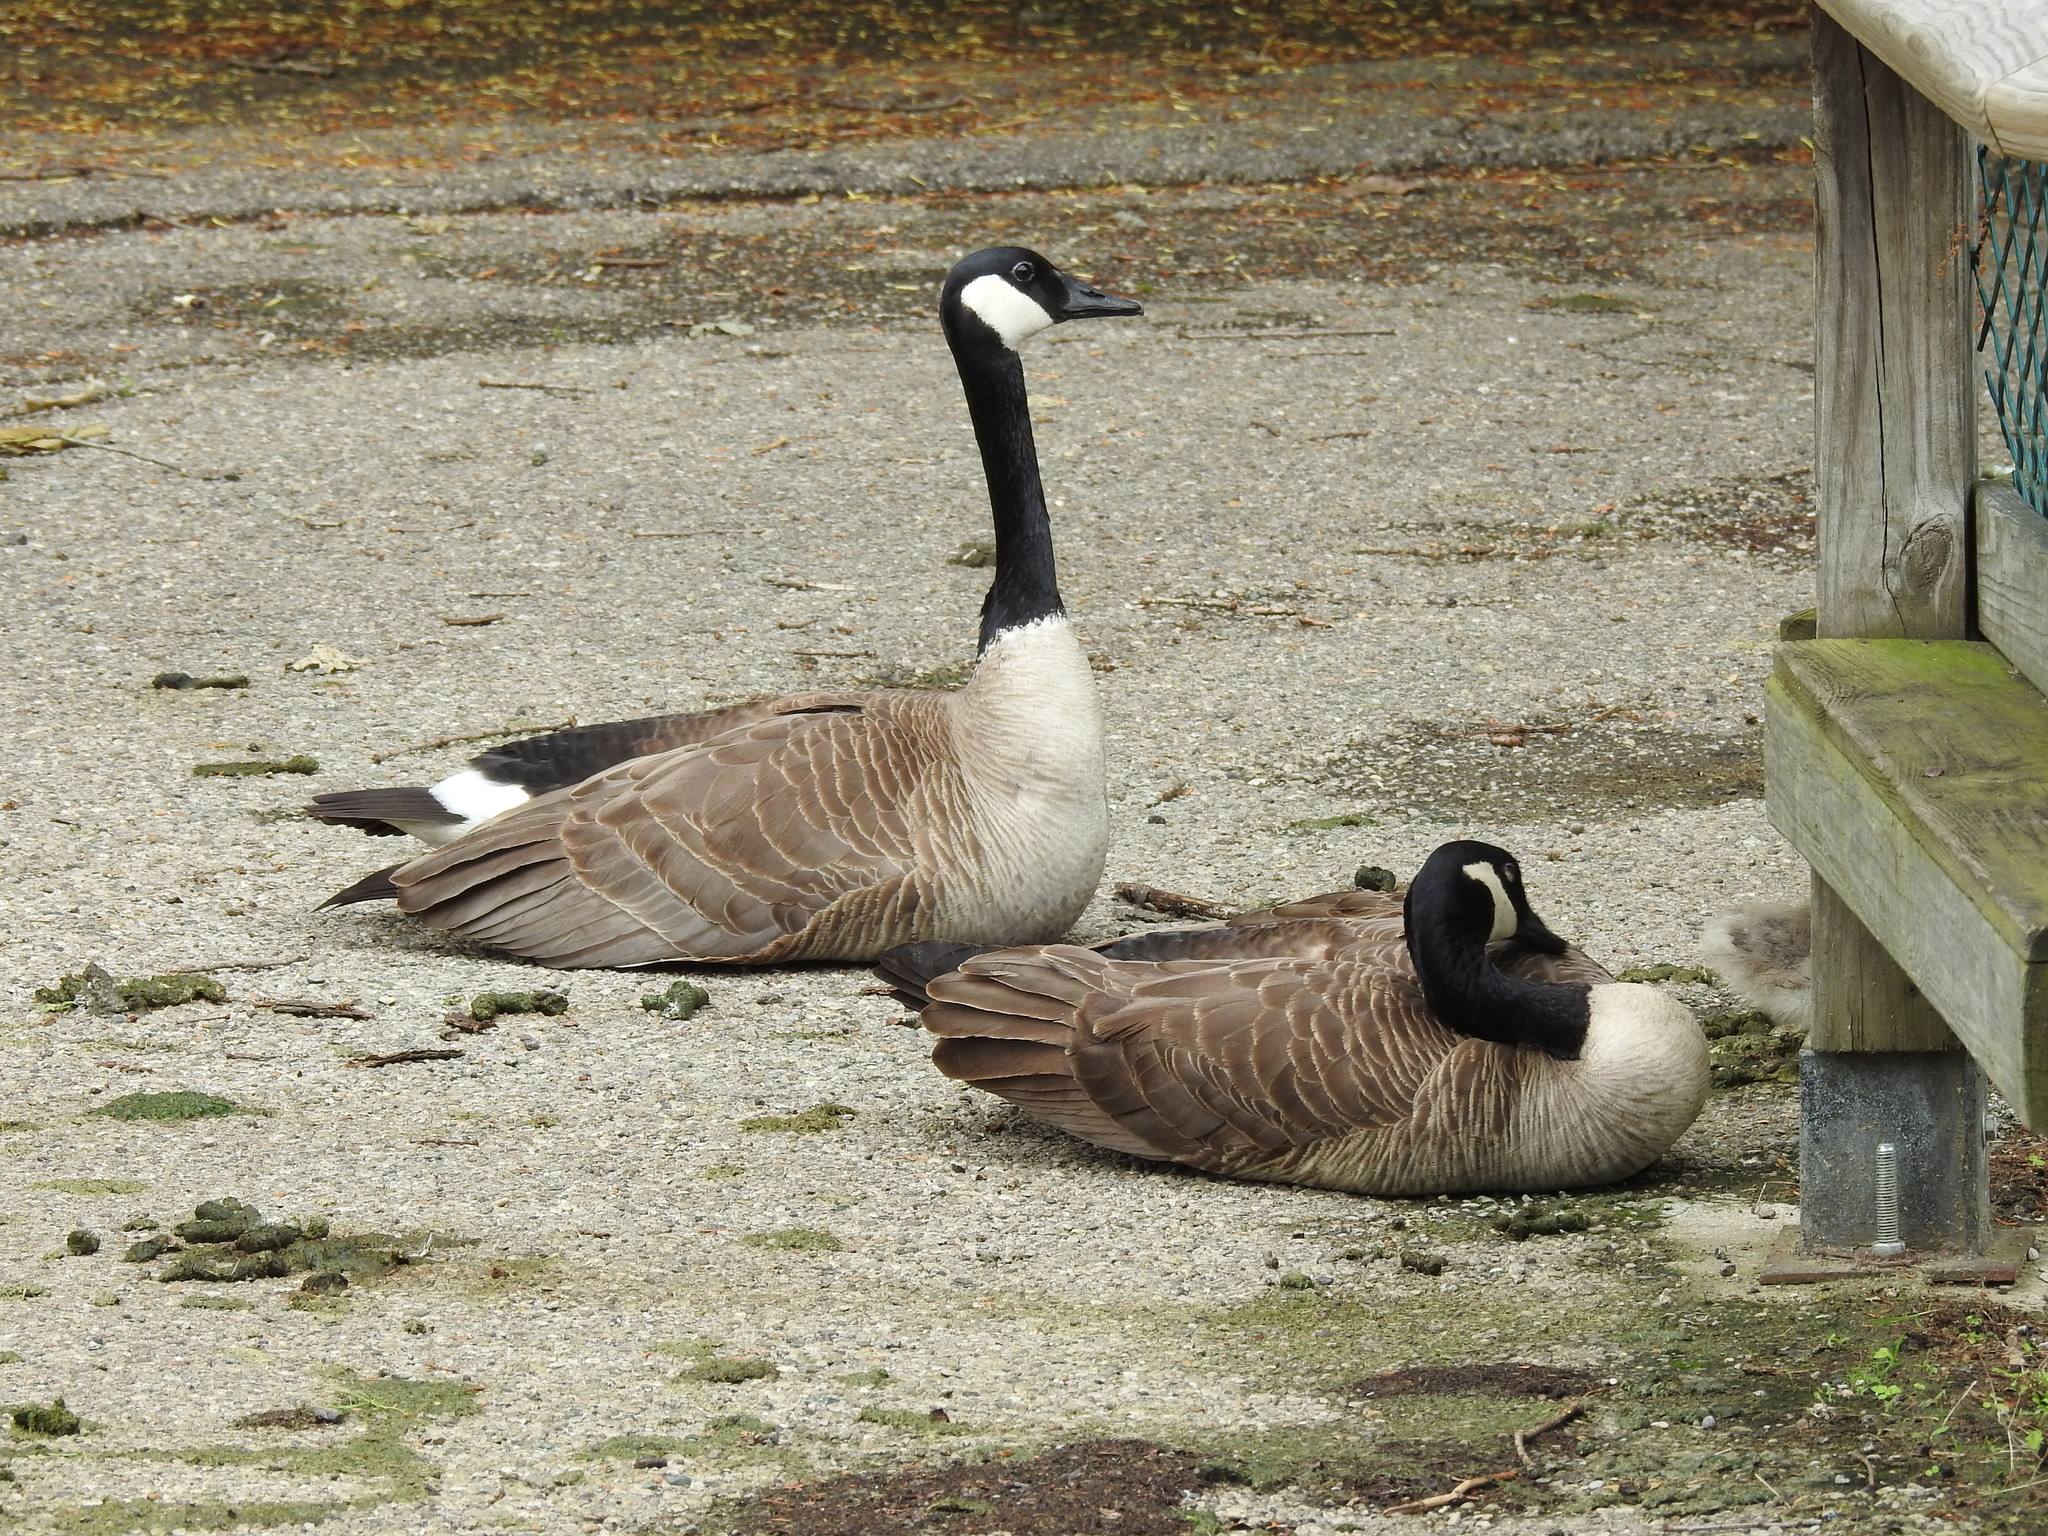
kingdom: Animalia
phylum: Chordata
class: Aves
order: Anseriformes
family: Anatidae
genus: Branta
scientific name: Branta canadensis
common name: Canada goose
